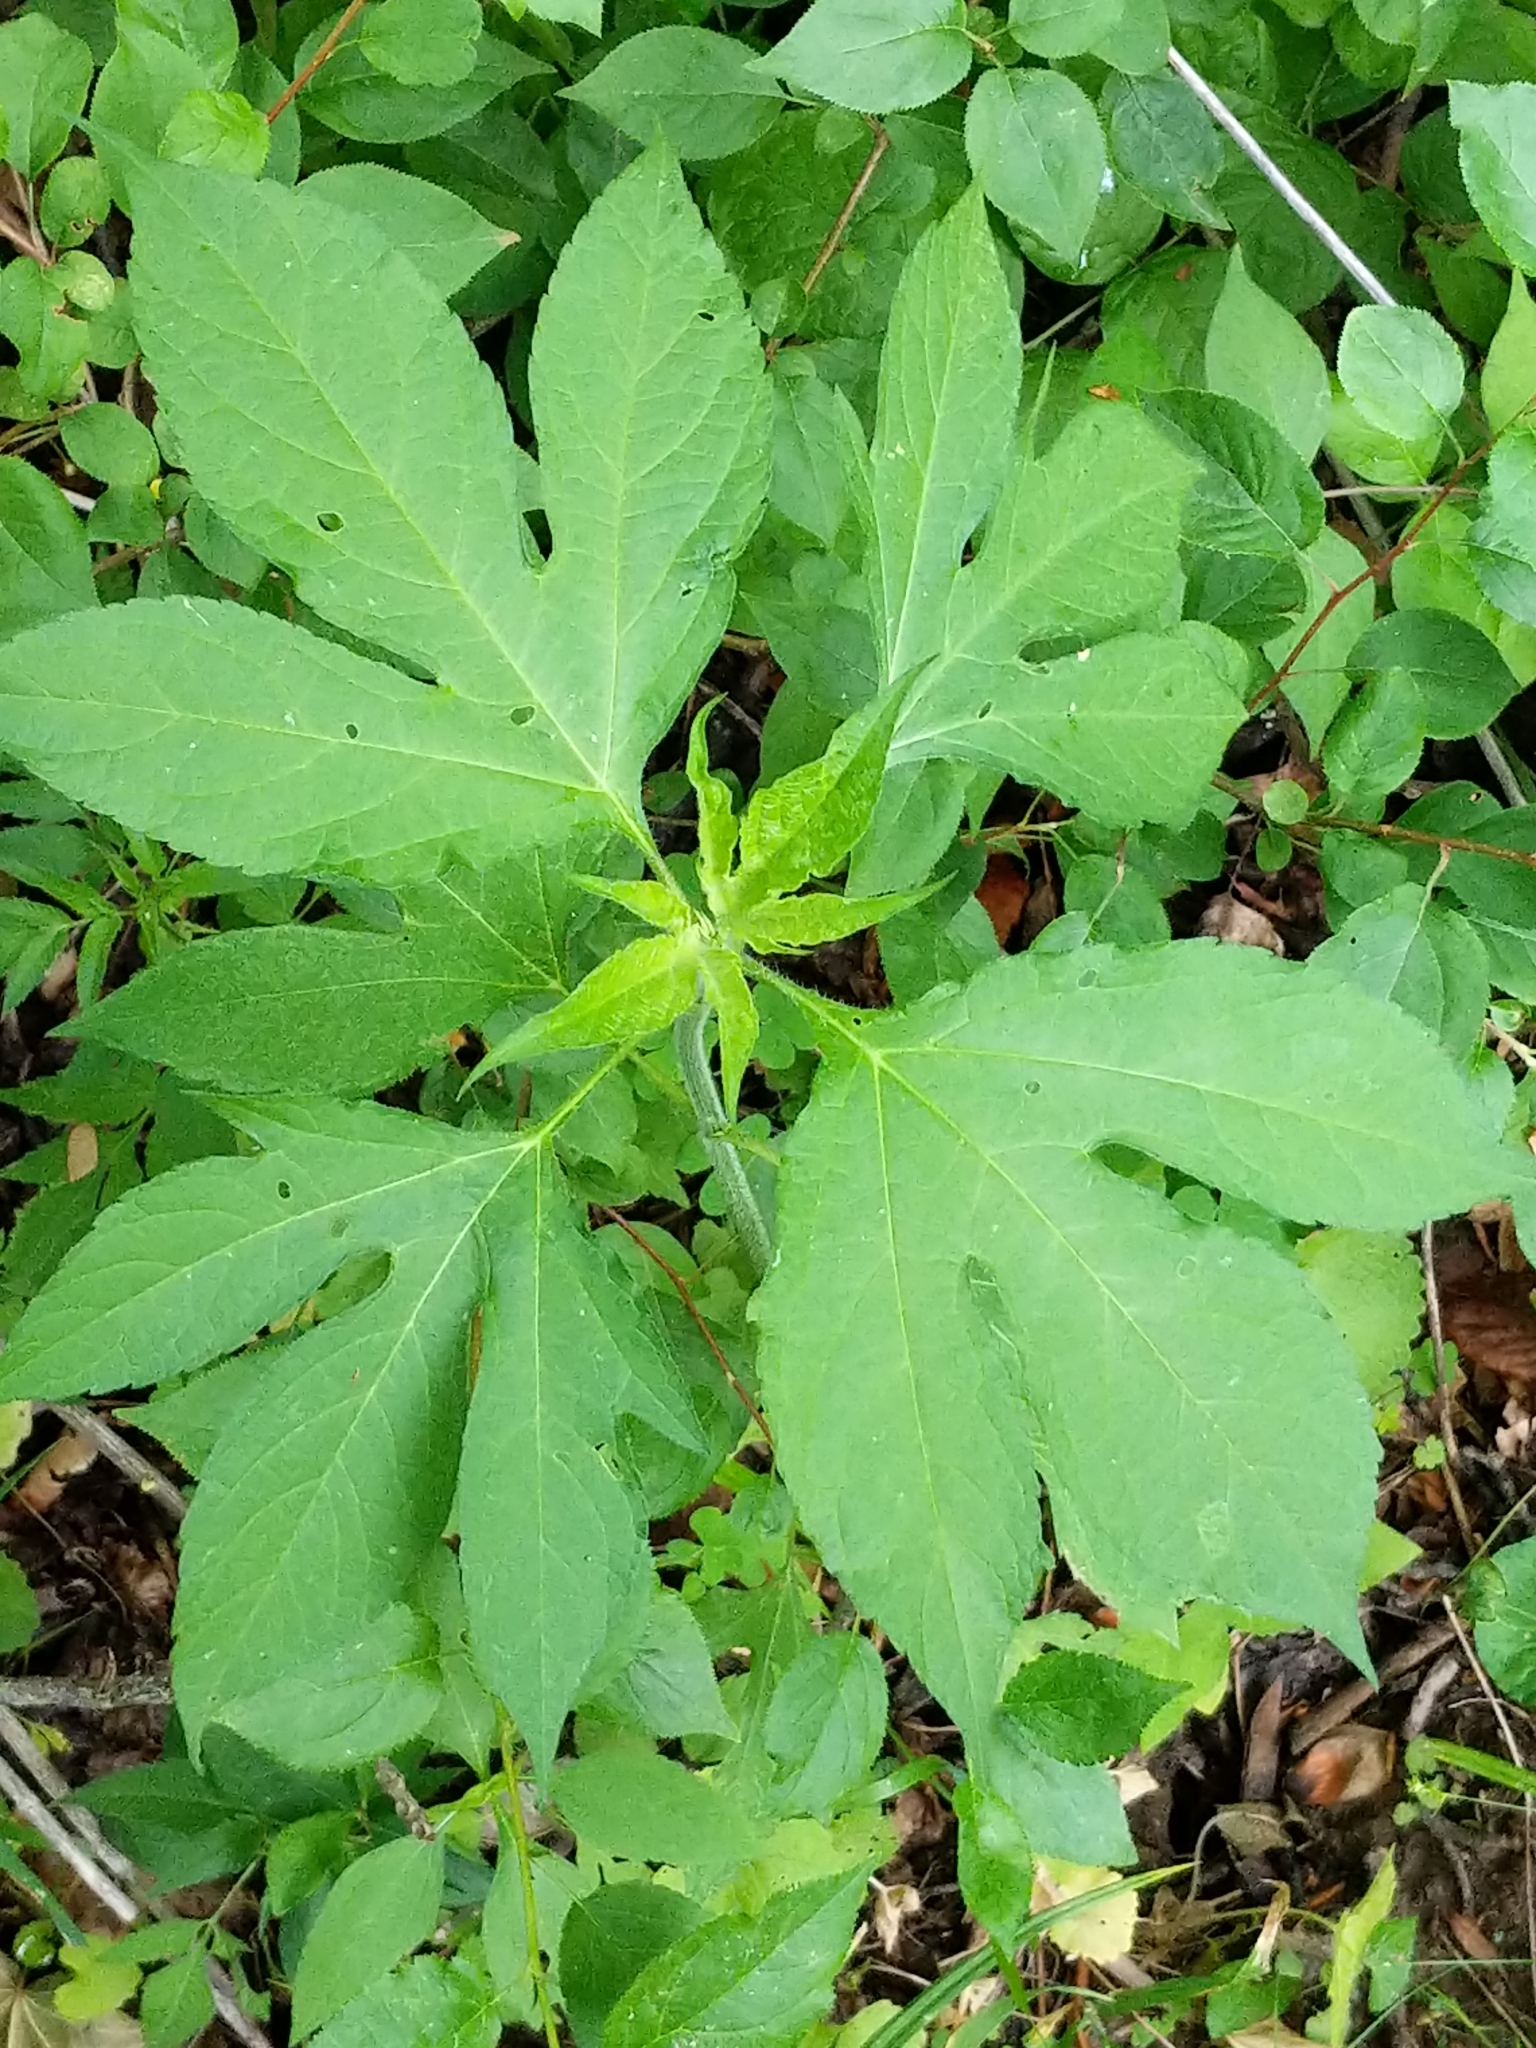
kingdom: Plantae
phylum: Tracheophyta
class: Magnoliopsida
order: Asterales
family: Asteraceae
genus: Ambrosia
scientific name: Ambrosia trifida
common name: Giant ragweed
